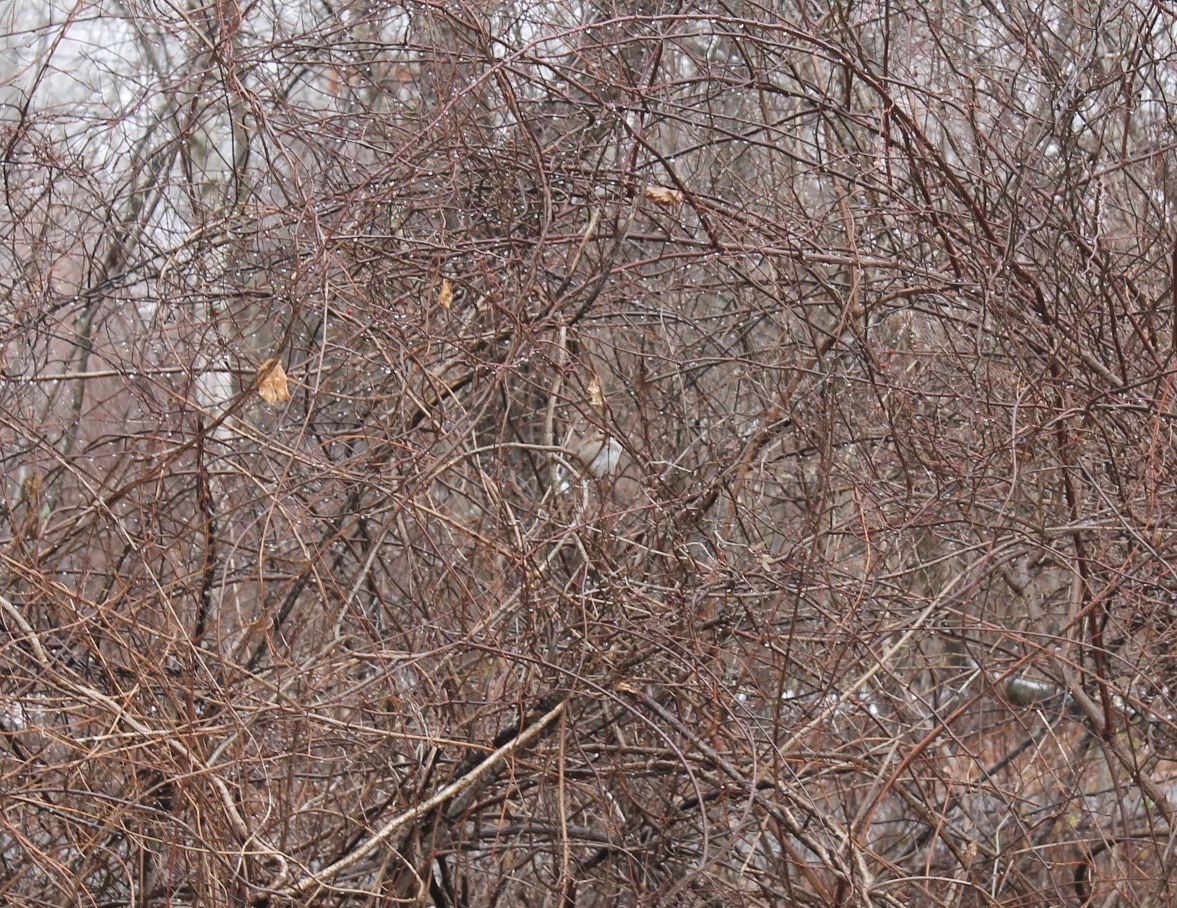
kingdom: Animalia
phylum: Chordata
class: Aves
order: Passeriformes
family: Passerellidae
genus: Zonotrichia
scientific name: Zonotrichia albicollis
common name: White-throated sparrow
